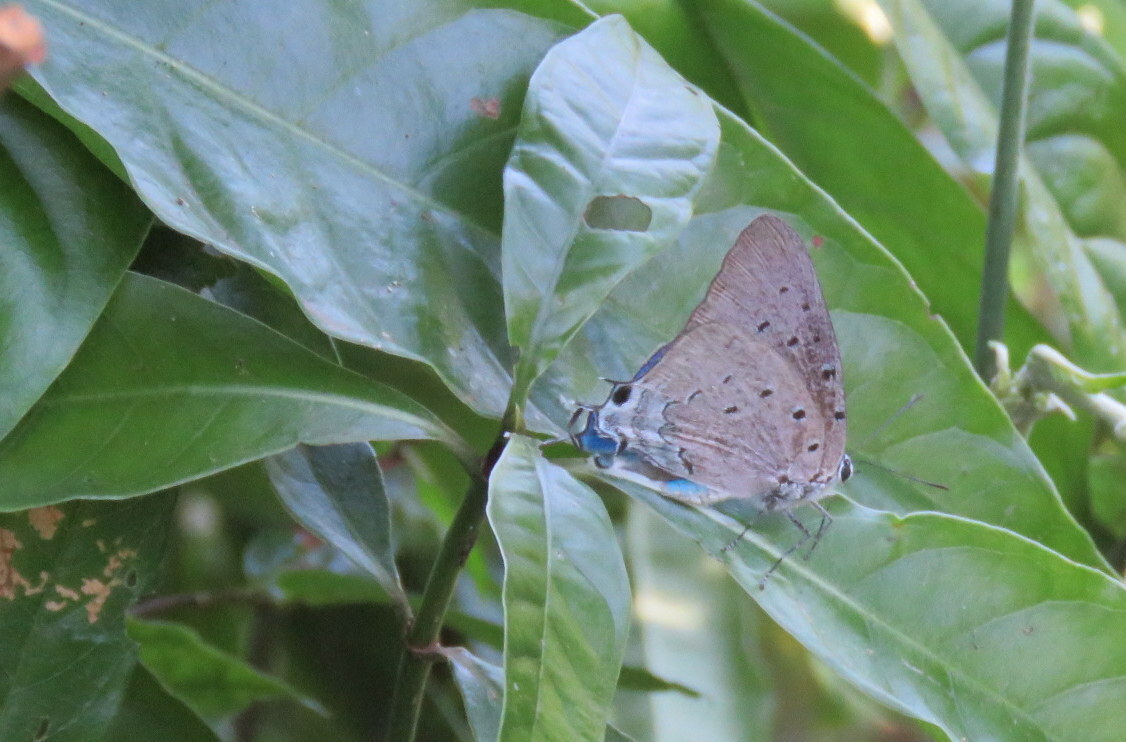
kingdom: Animalia
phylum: Arthropoda
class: Insecta
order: Lepidoptera
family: Lycaenidae
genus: Pseudolycaena
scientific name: Pseudolycaena marsyas
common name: Marsyas hairstreak
